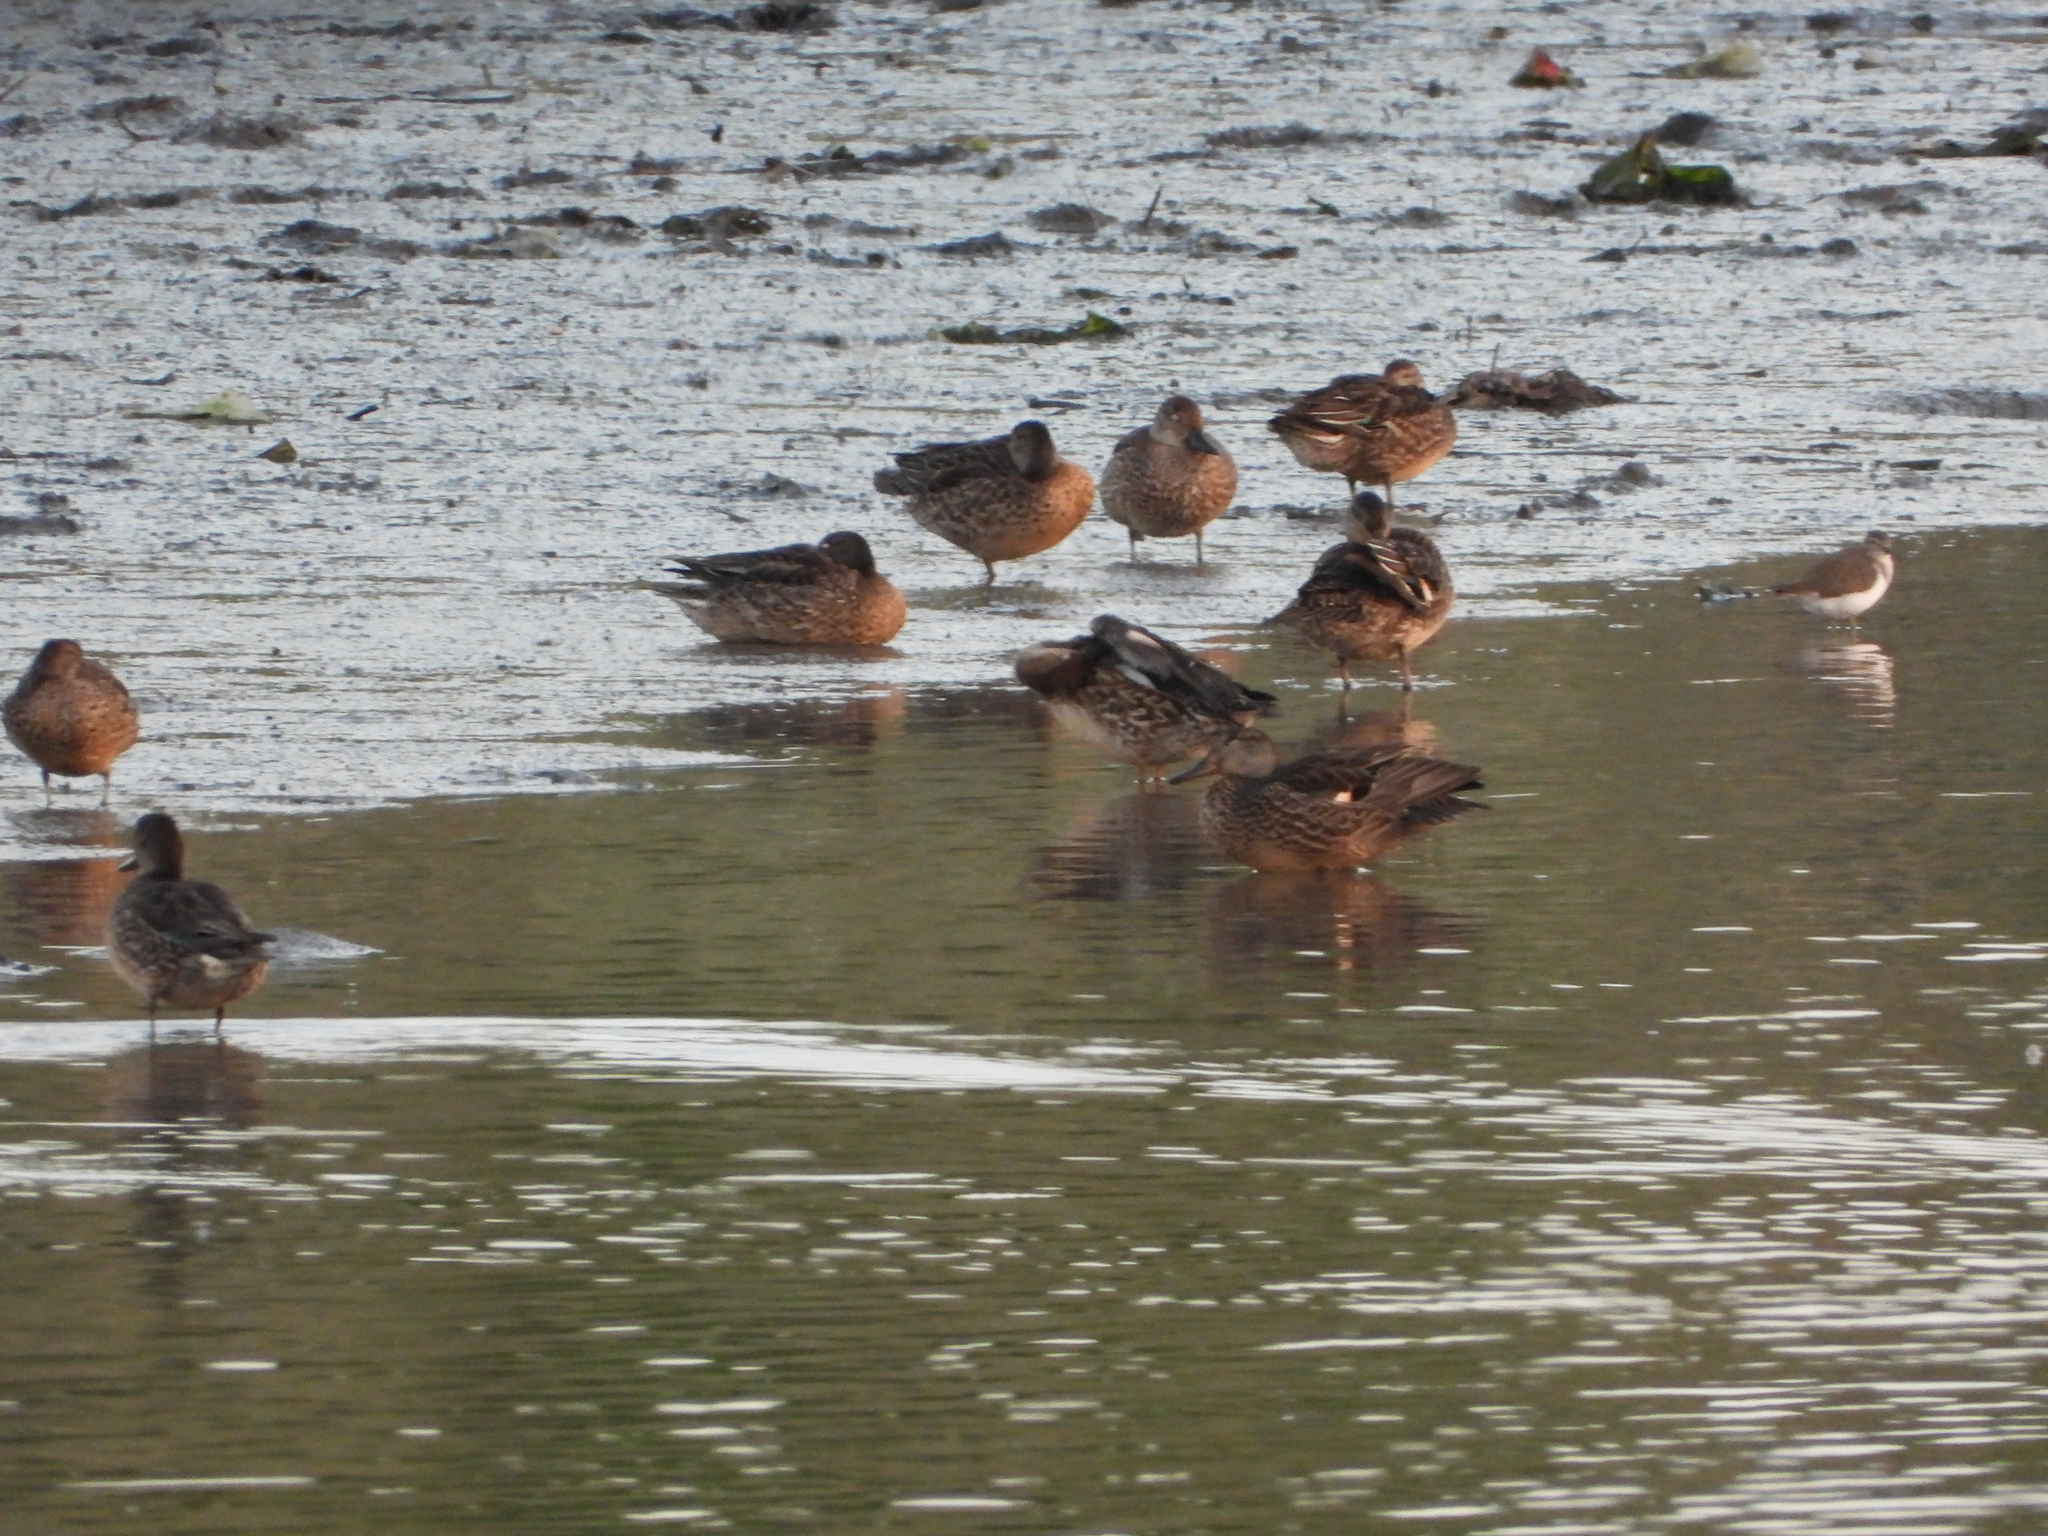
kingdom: Animalia
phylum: Chordata
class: Aves
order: Anseriformes
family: Anatidae
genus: Spatula
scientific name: Spatula clypeata
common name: Northern shoveler
